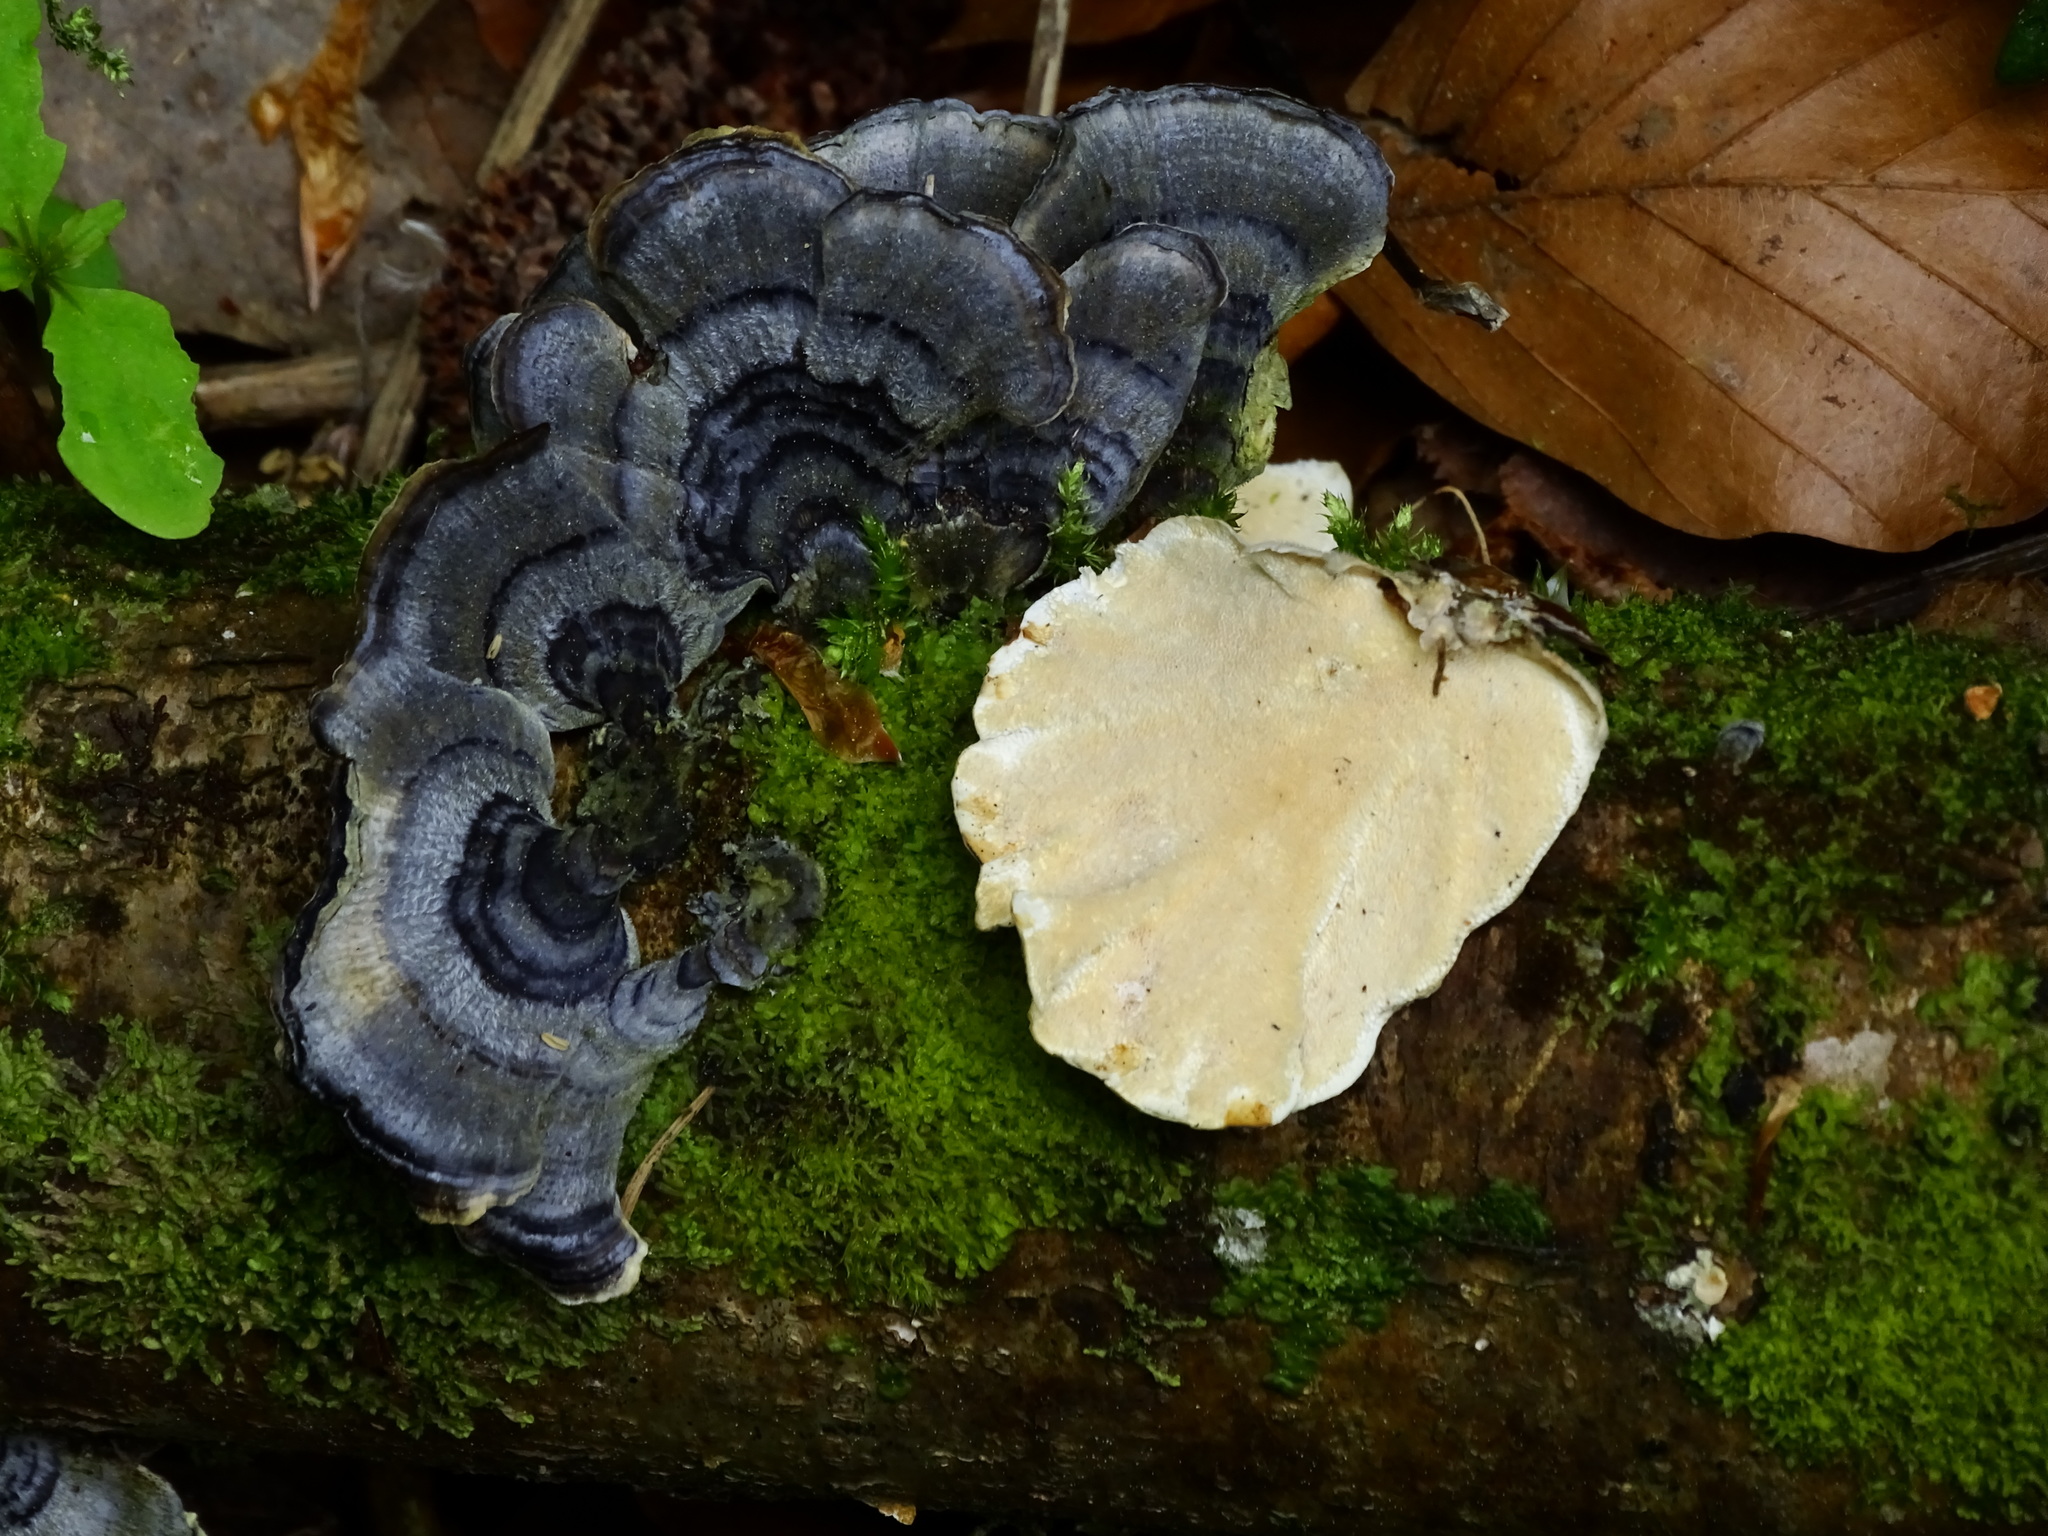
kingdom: Fungi
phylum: Basidiomycota
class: Agaricomycetes
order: Polyporales
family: Polyporaceae
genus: Trametes
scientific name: Trametes versicolor
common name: Turkeytail
